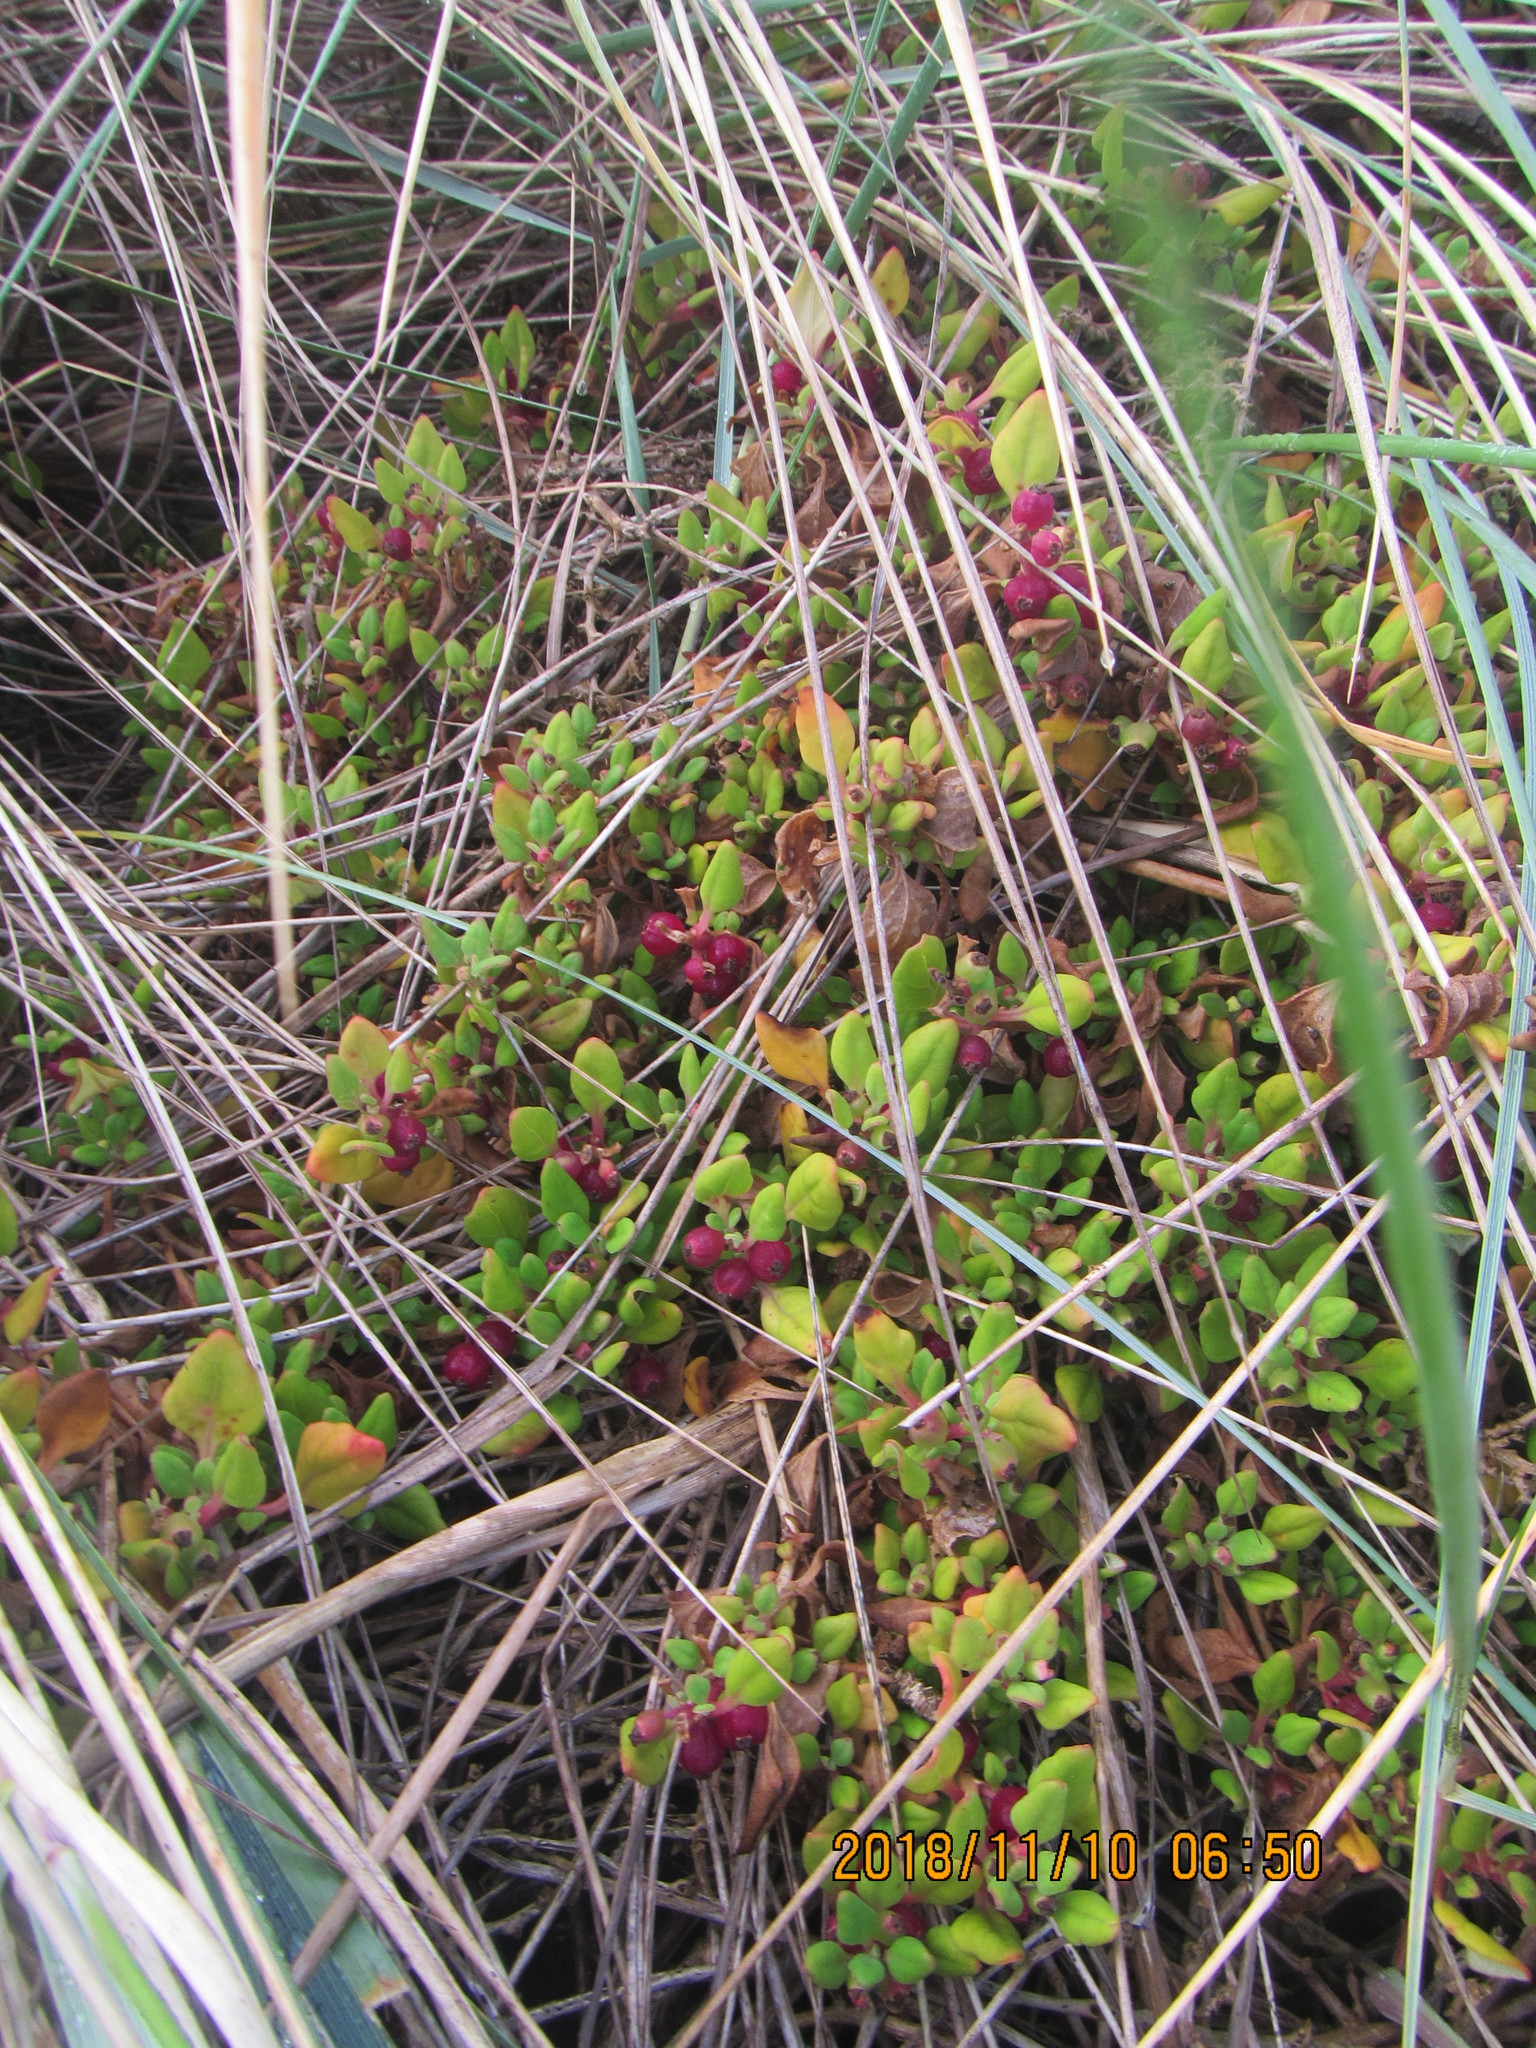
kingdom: Plantae
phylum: Tracheophyta
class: Magnoliopsida
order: Caryophyllales
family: Aizoaceae
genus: Tetragonia
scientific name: Tetragonia implexicoma
